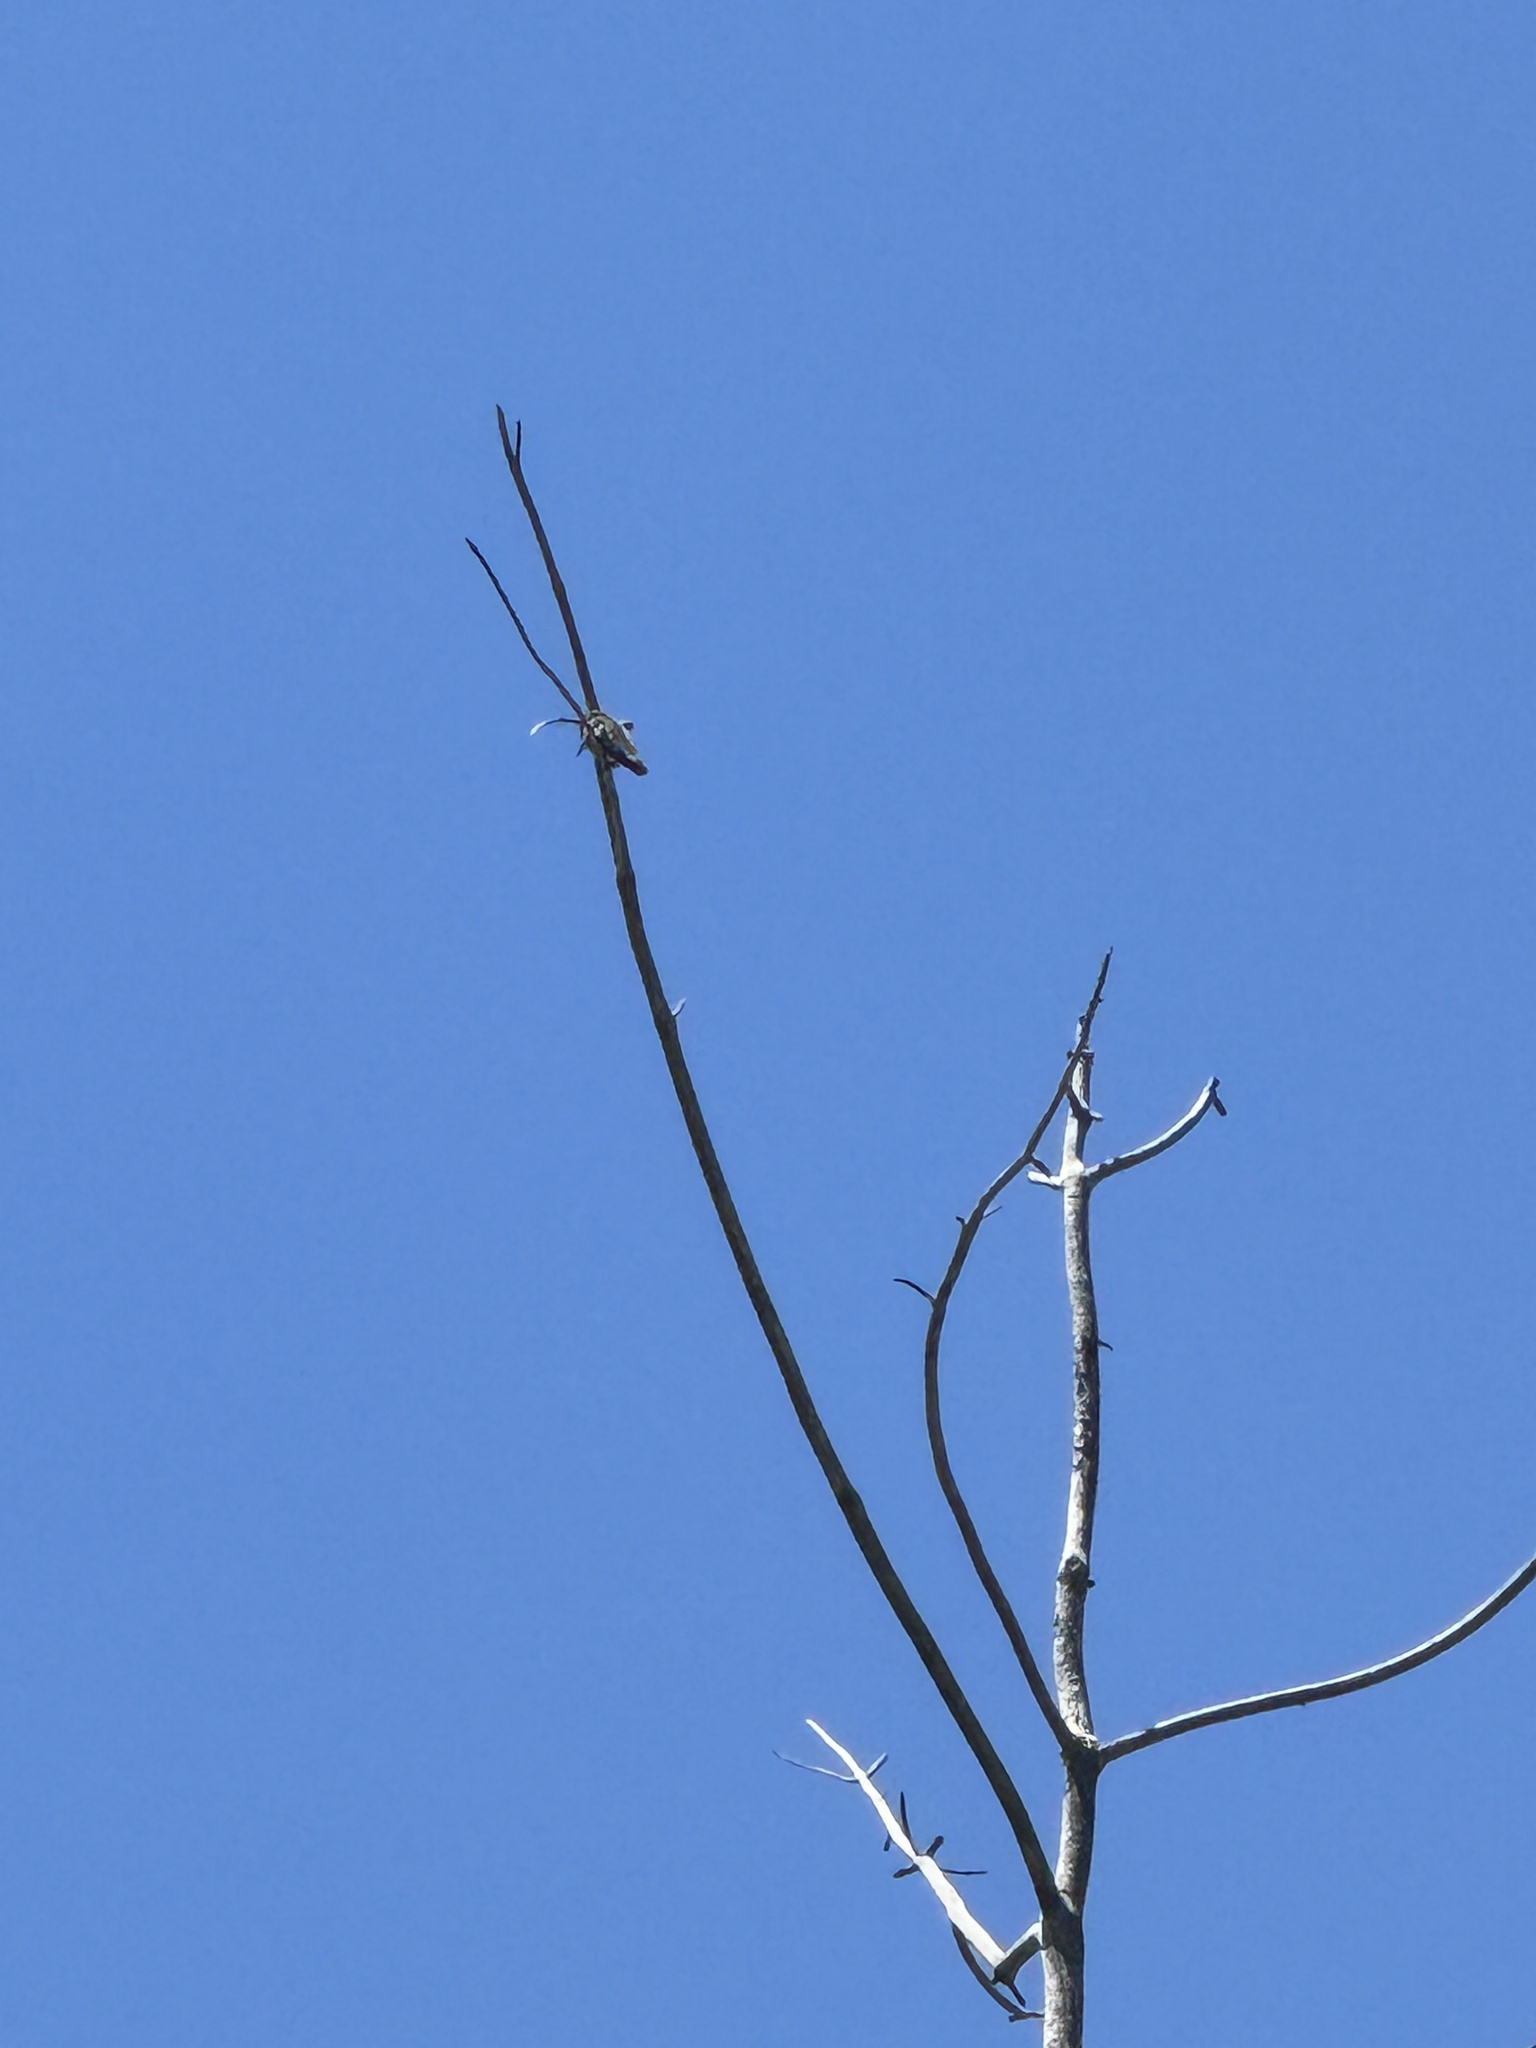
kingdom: Animalia
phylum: Chordata
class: Aves
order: Apodiformes
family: Trochilidae
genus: Calypte
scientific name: Calypte anna
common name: Anna's hummingbird
